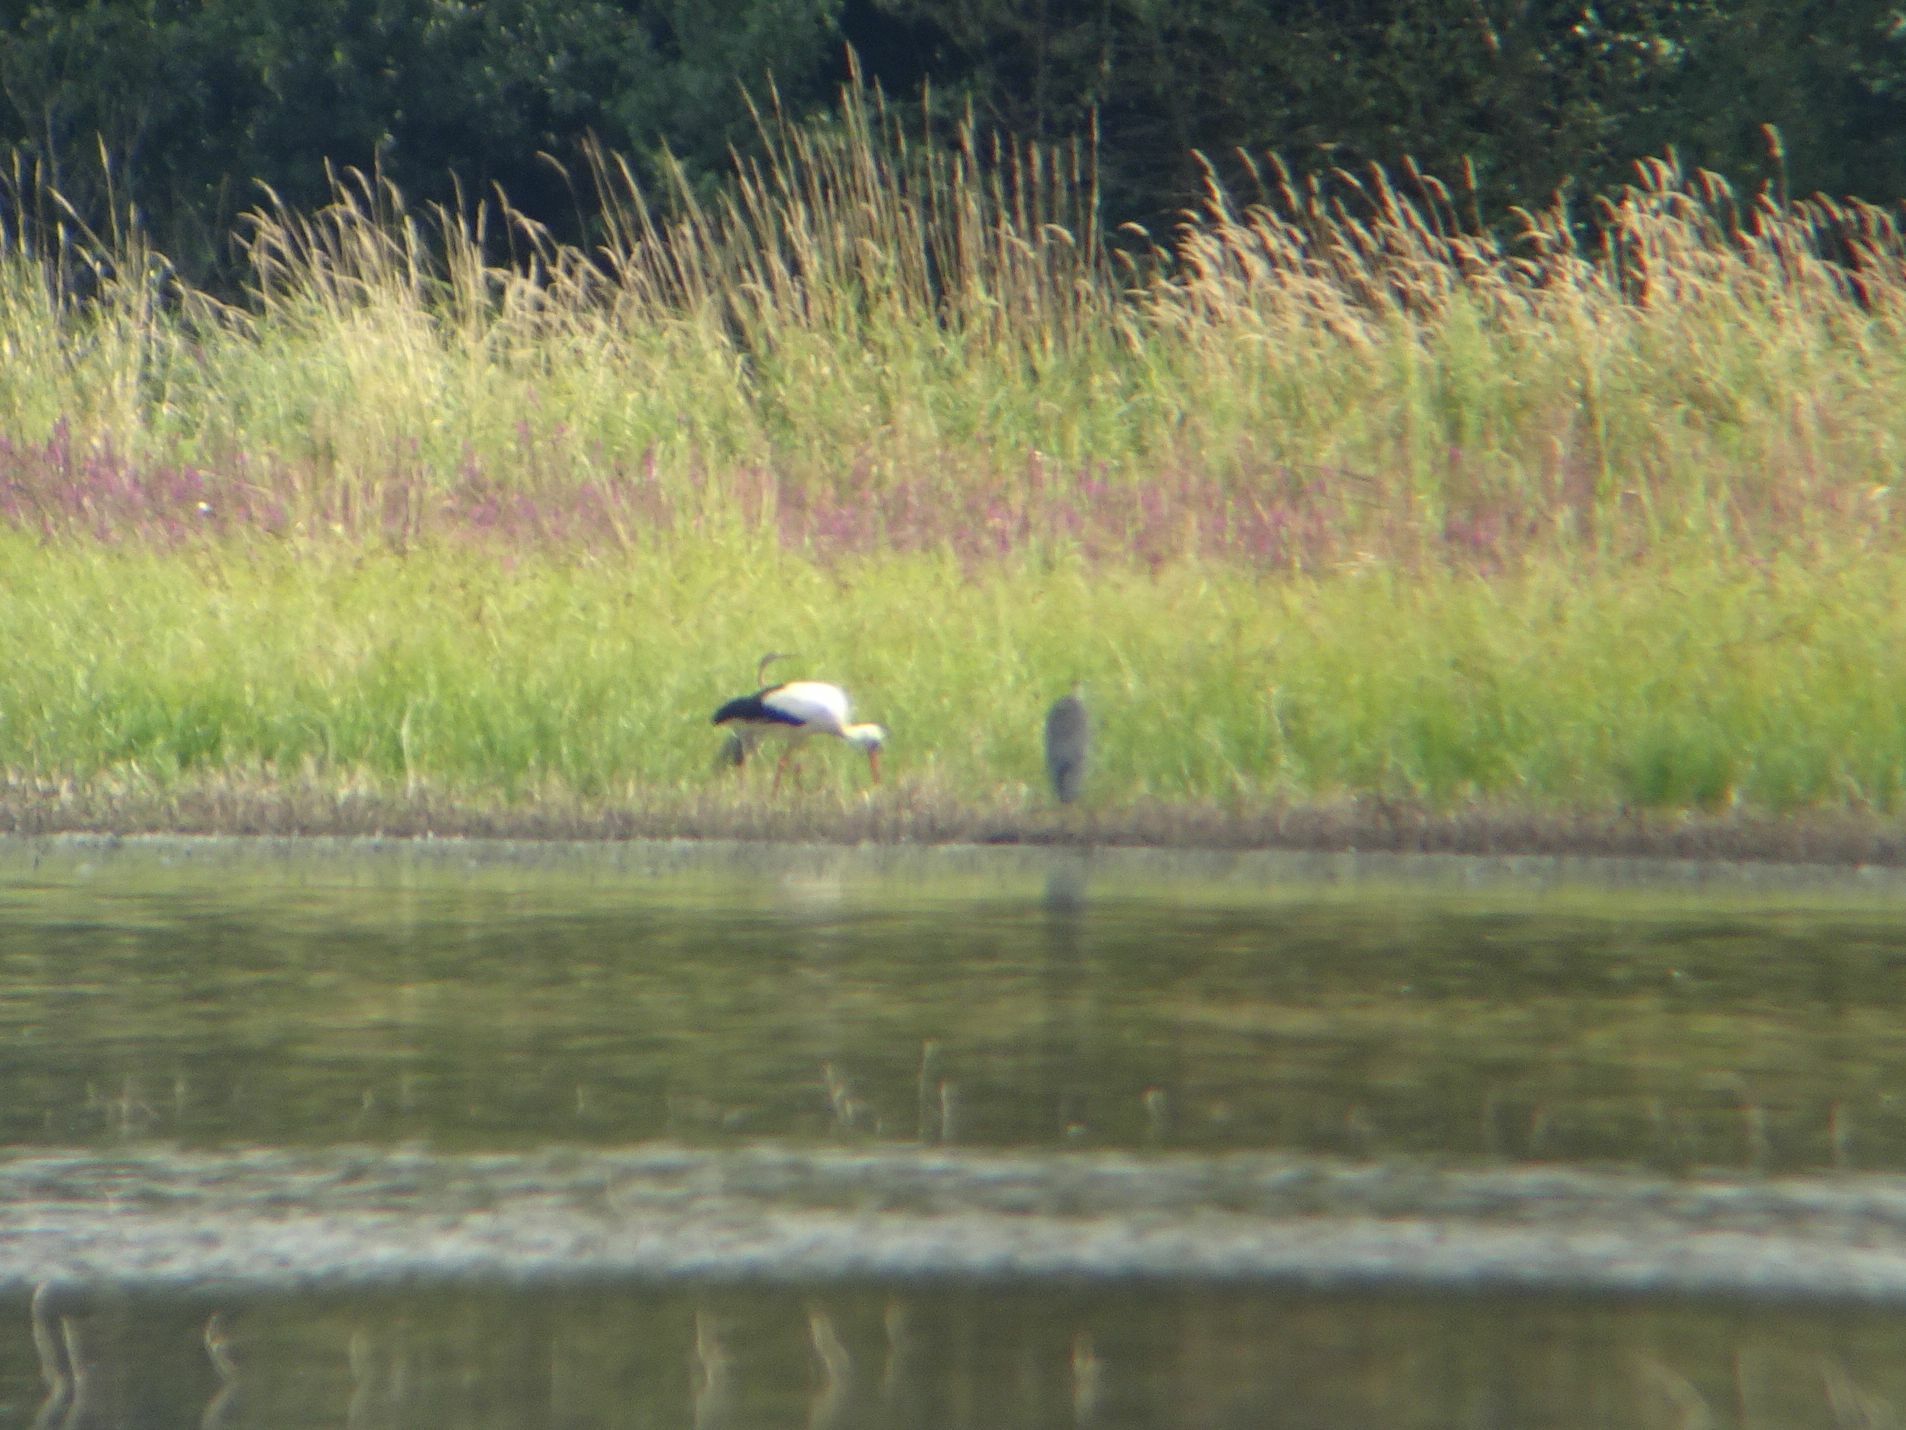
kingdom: Animalia
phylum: Chordata
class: Aves
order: Pelecaniformes
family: Ardeidae
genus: Ardea
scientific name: Ardea purpurea
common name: Purple heron
